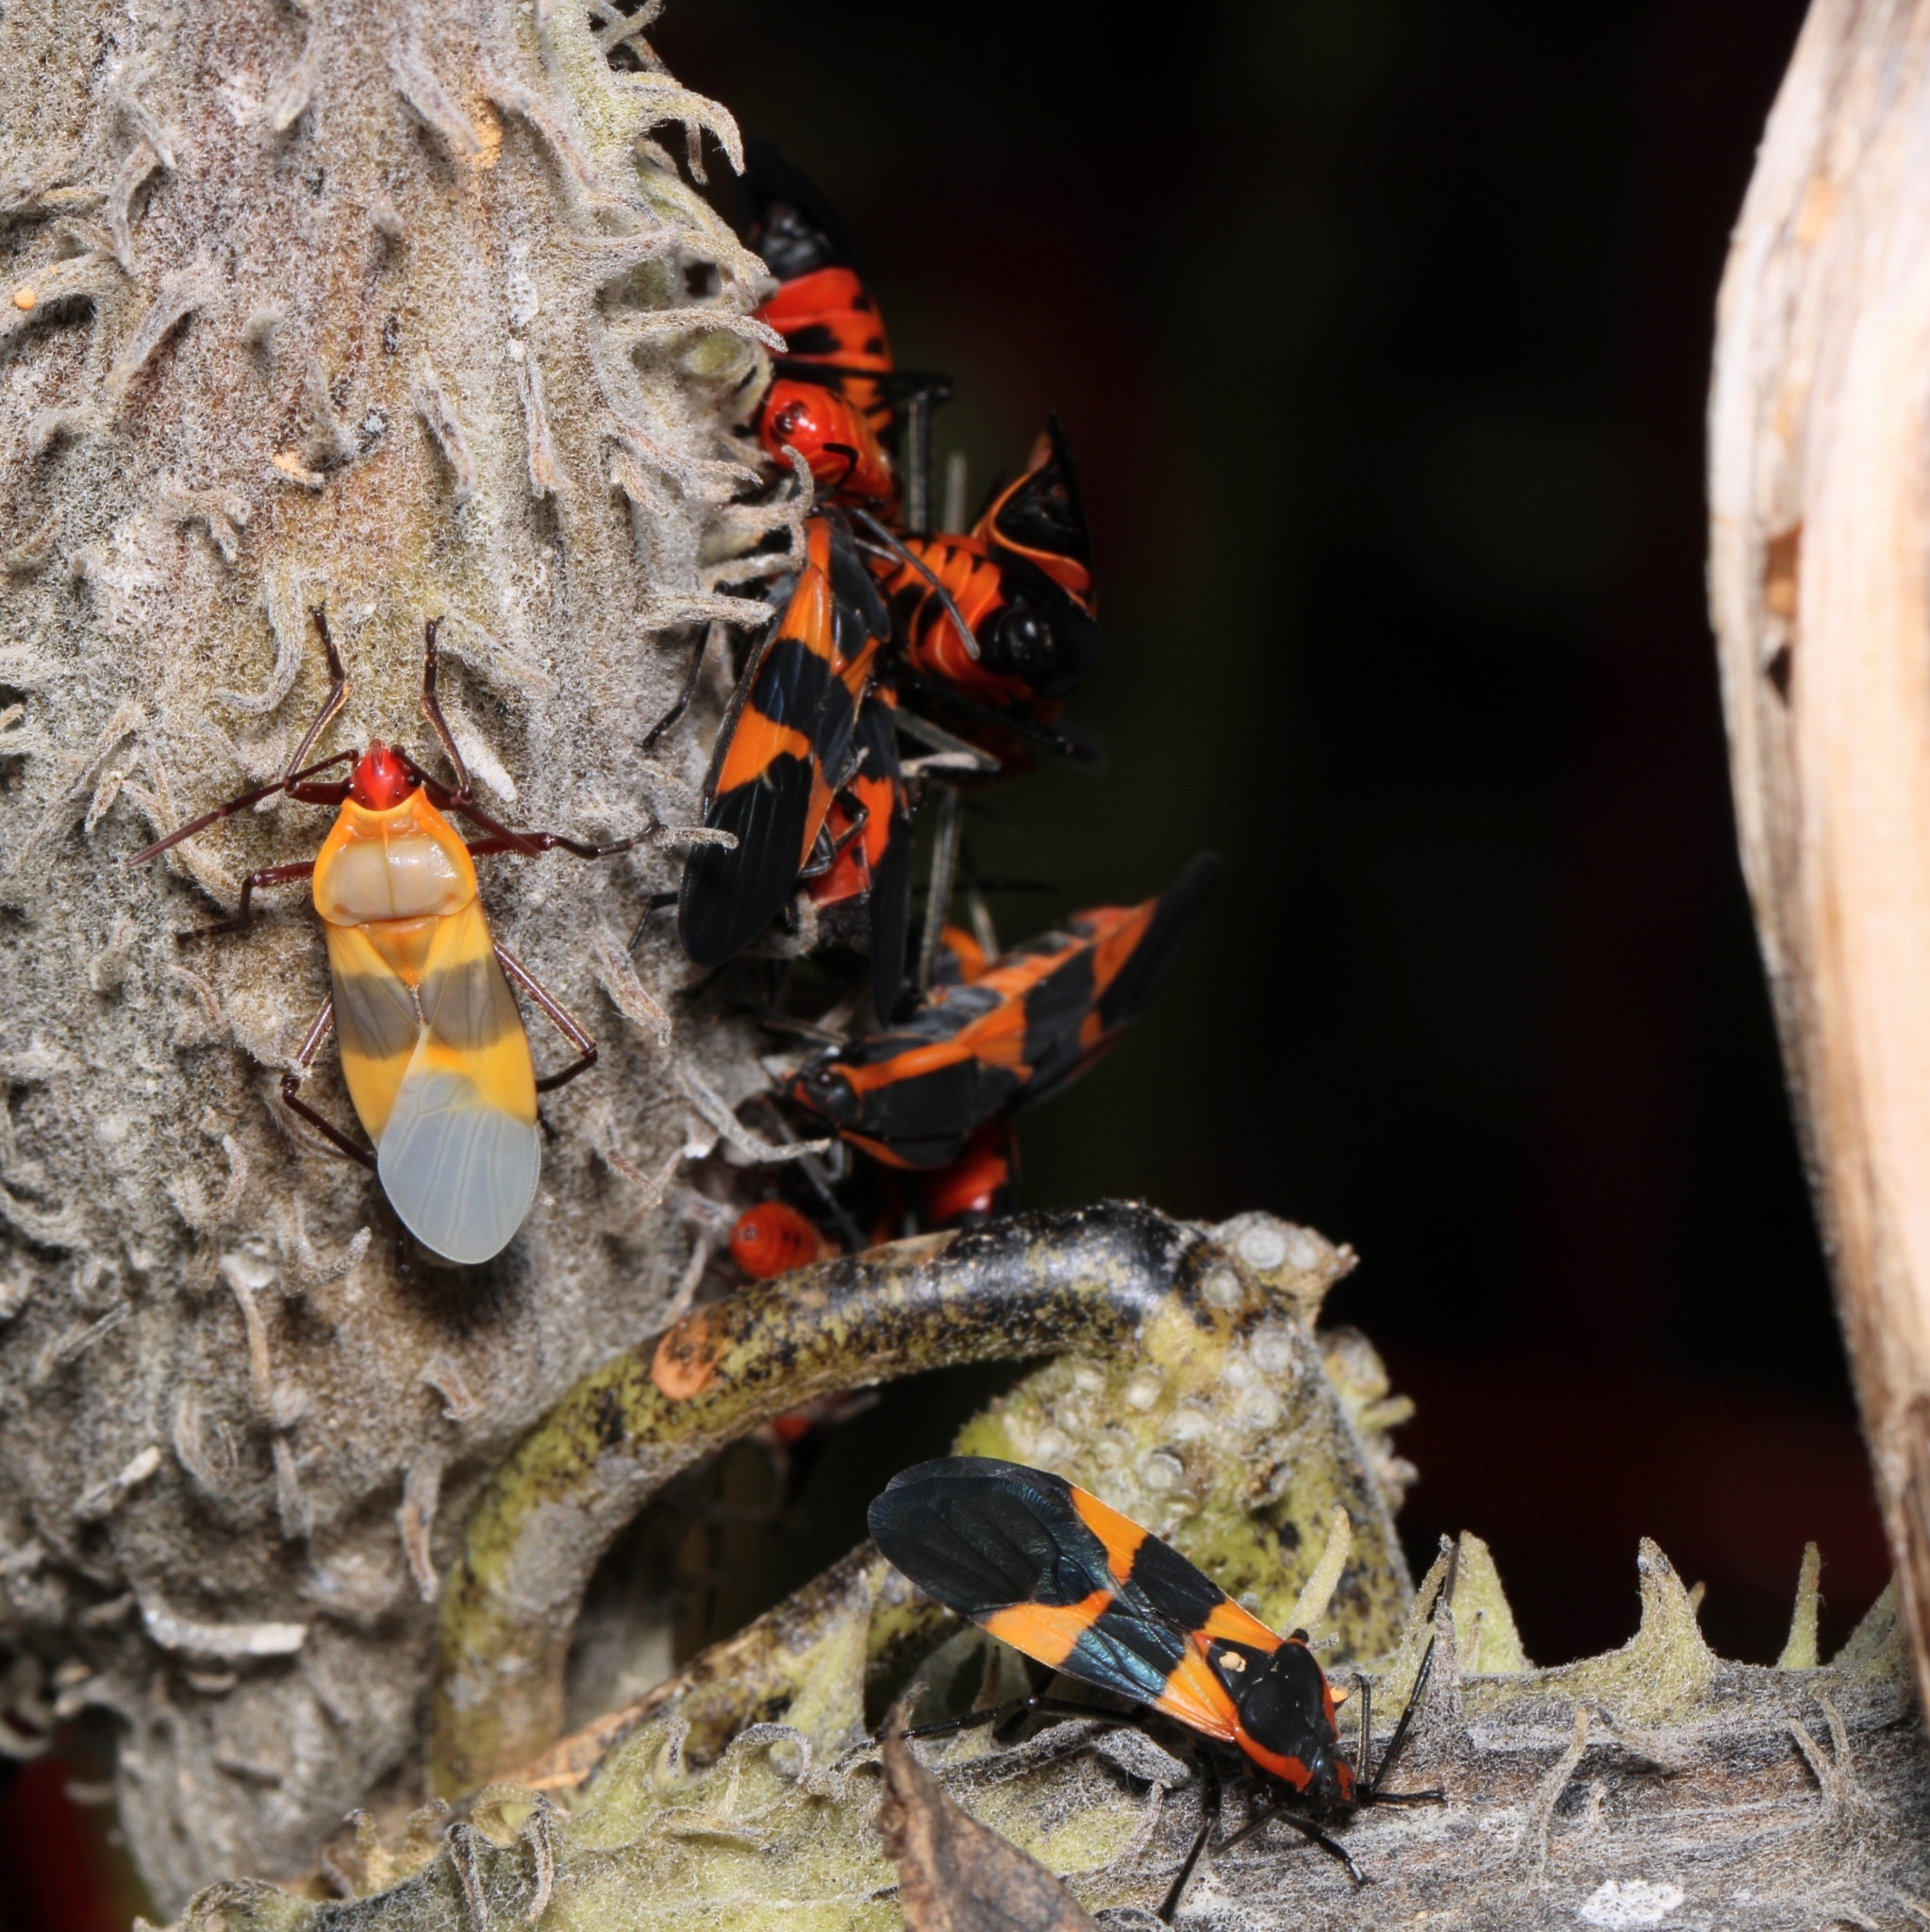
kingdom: Animalia
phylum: Arthropoda
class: Insecta
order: Hemiptera
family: Lygaeidae
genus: Oncopeltus
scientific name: Oncopeltus fasciatus
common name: Large milkweed bug
